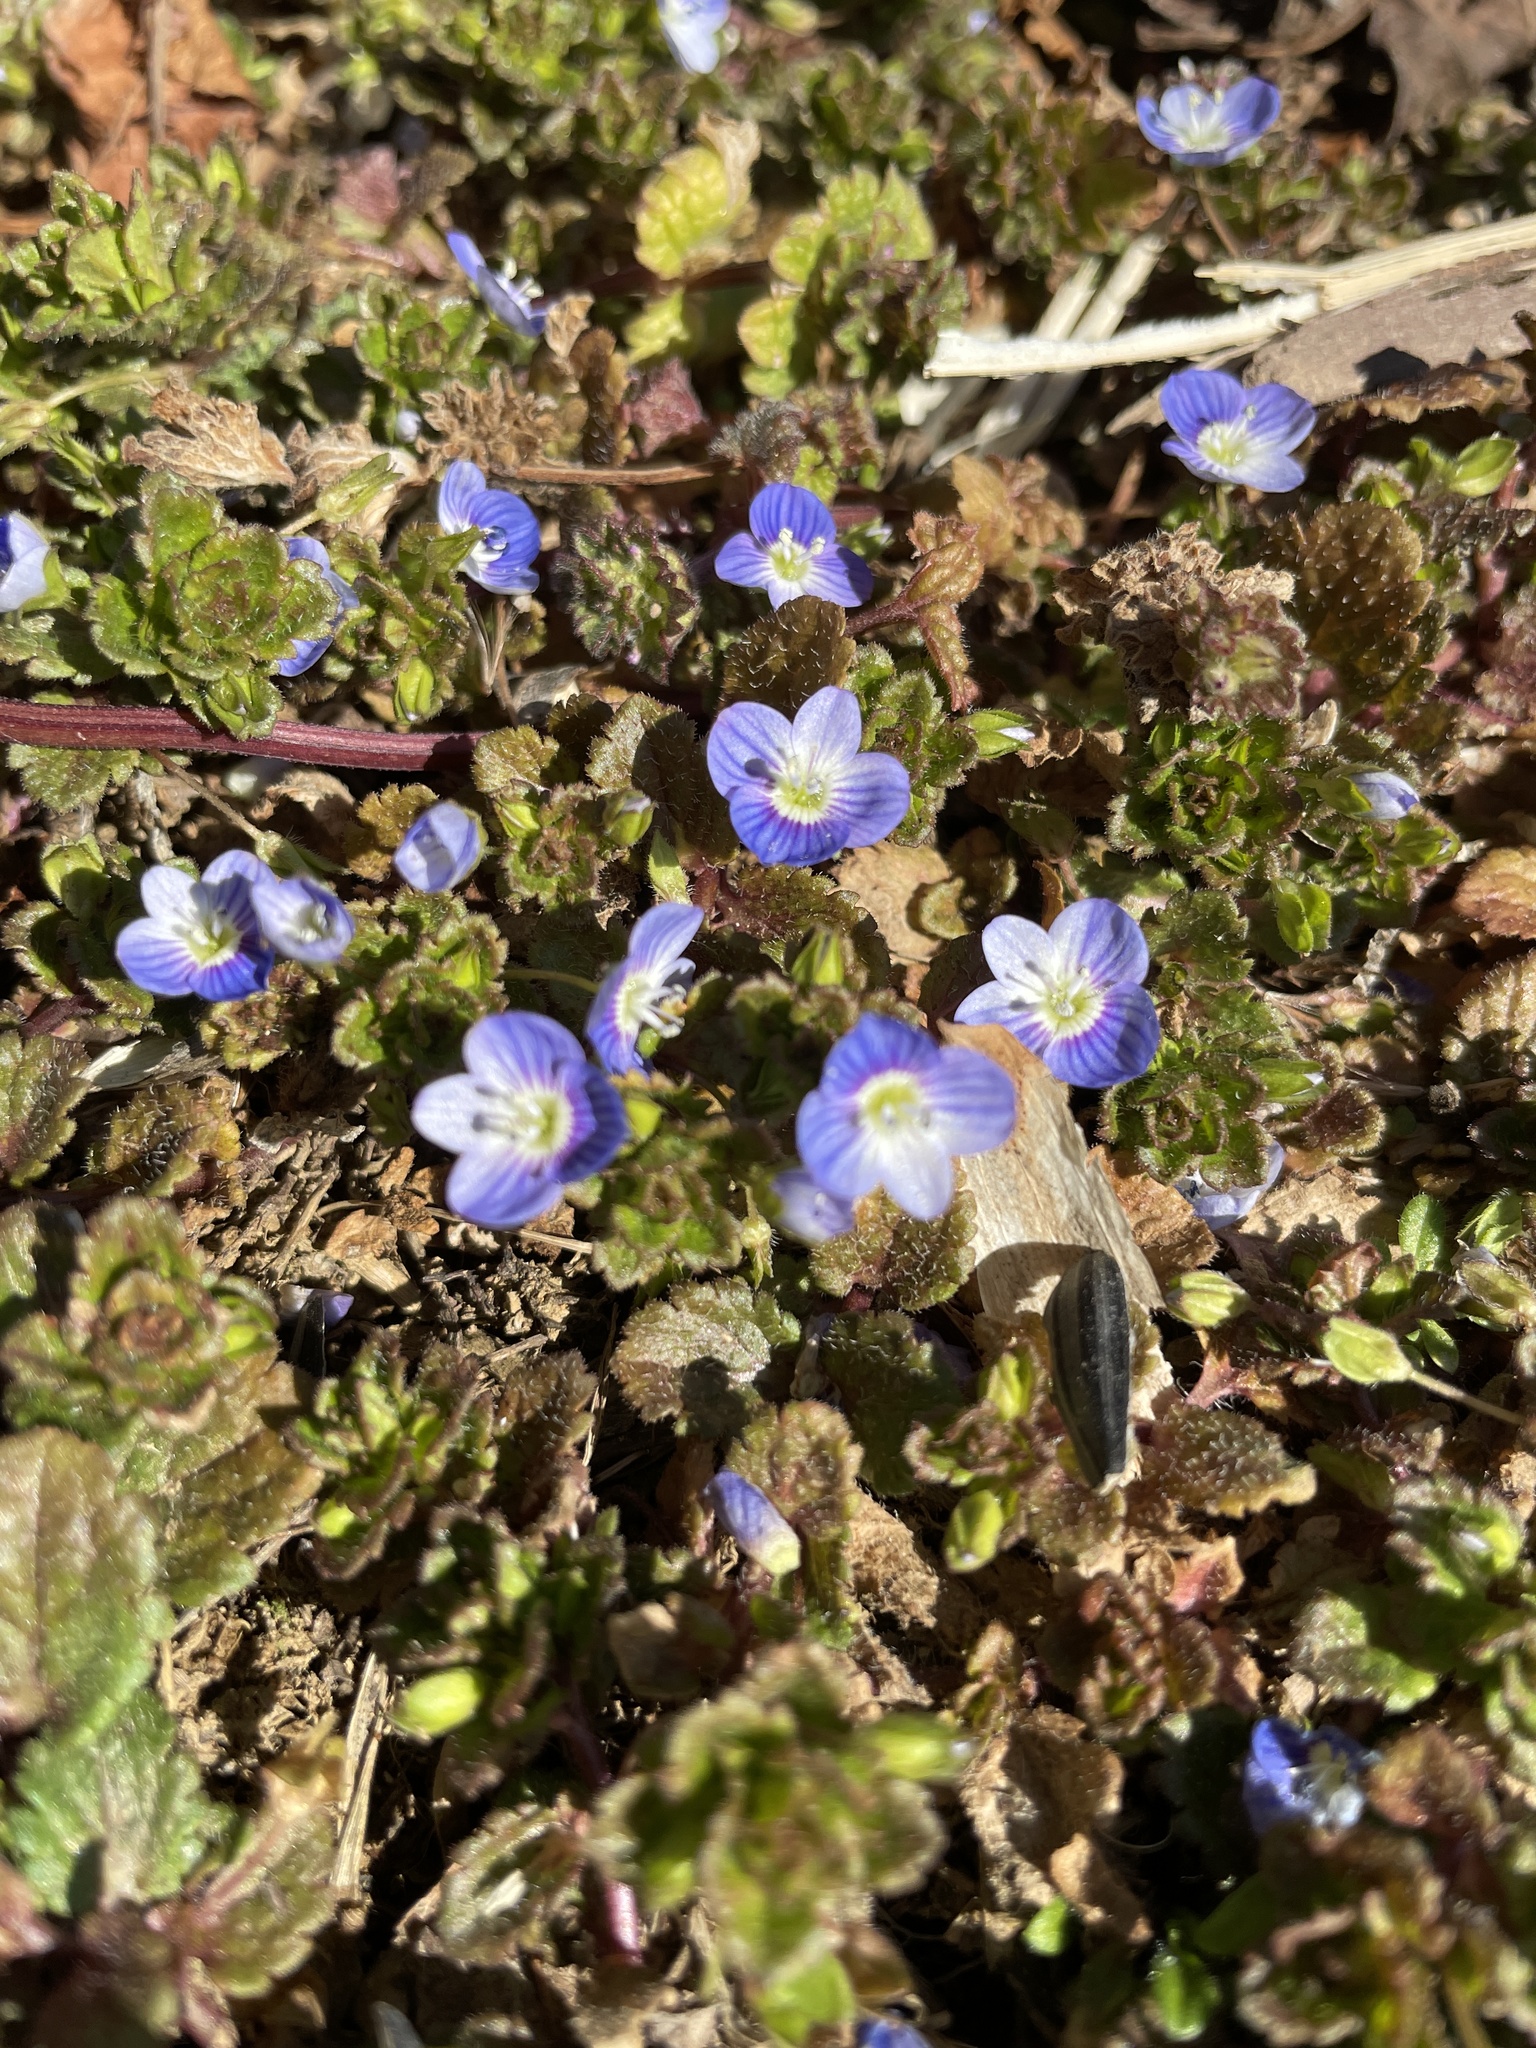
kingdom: Plantae
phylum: Tracheophyta
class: Magnoliopsida
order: Lamiales
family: Plantaginaceae
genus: Veronica
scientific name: Veronica persica
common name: Common field-speedwell
